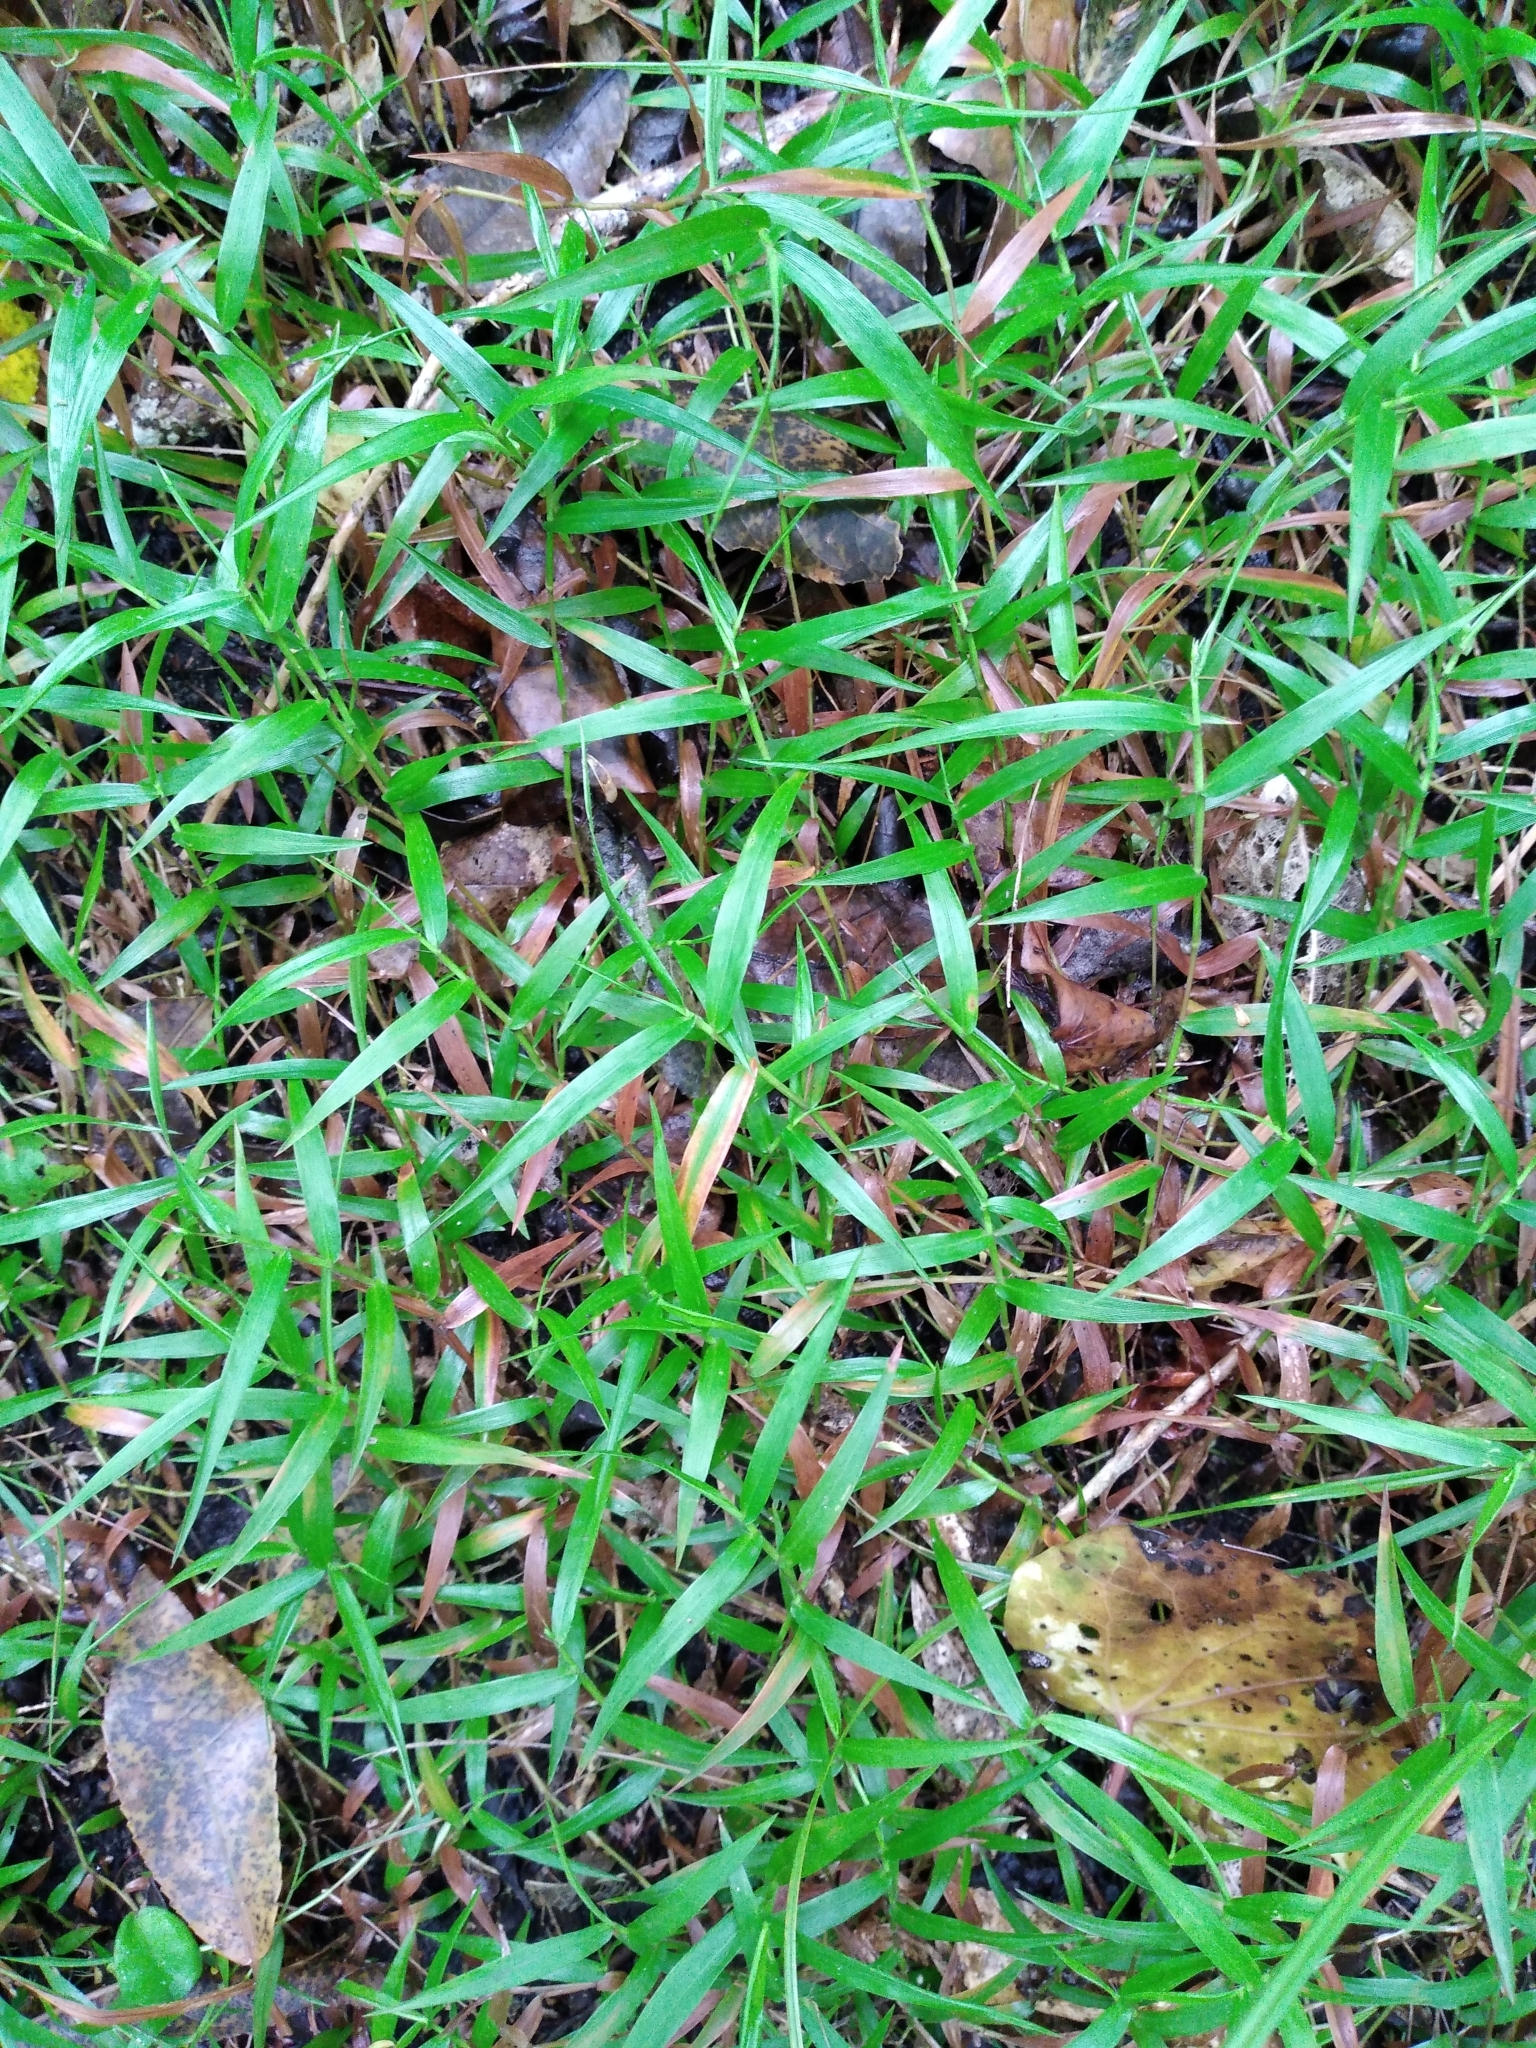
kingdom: Plantae
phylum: Tracheophyta
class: Liliopsida
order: Poales
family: Poaceae
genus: Oplismenus
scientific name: Oplismenus hirtellus
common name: Basketgrass
